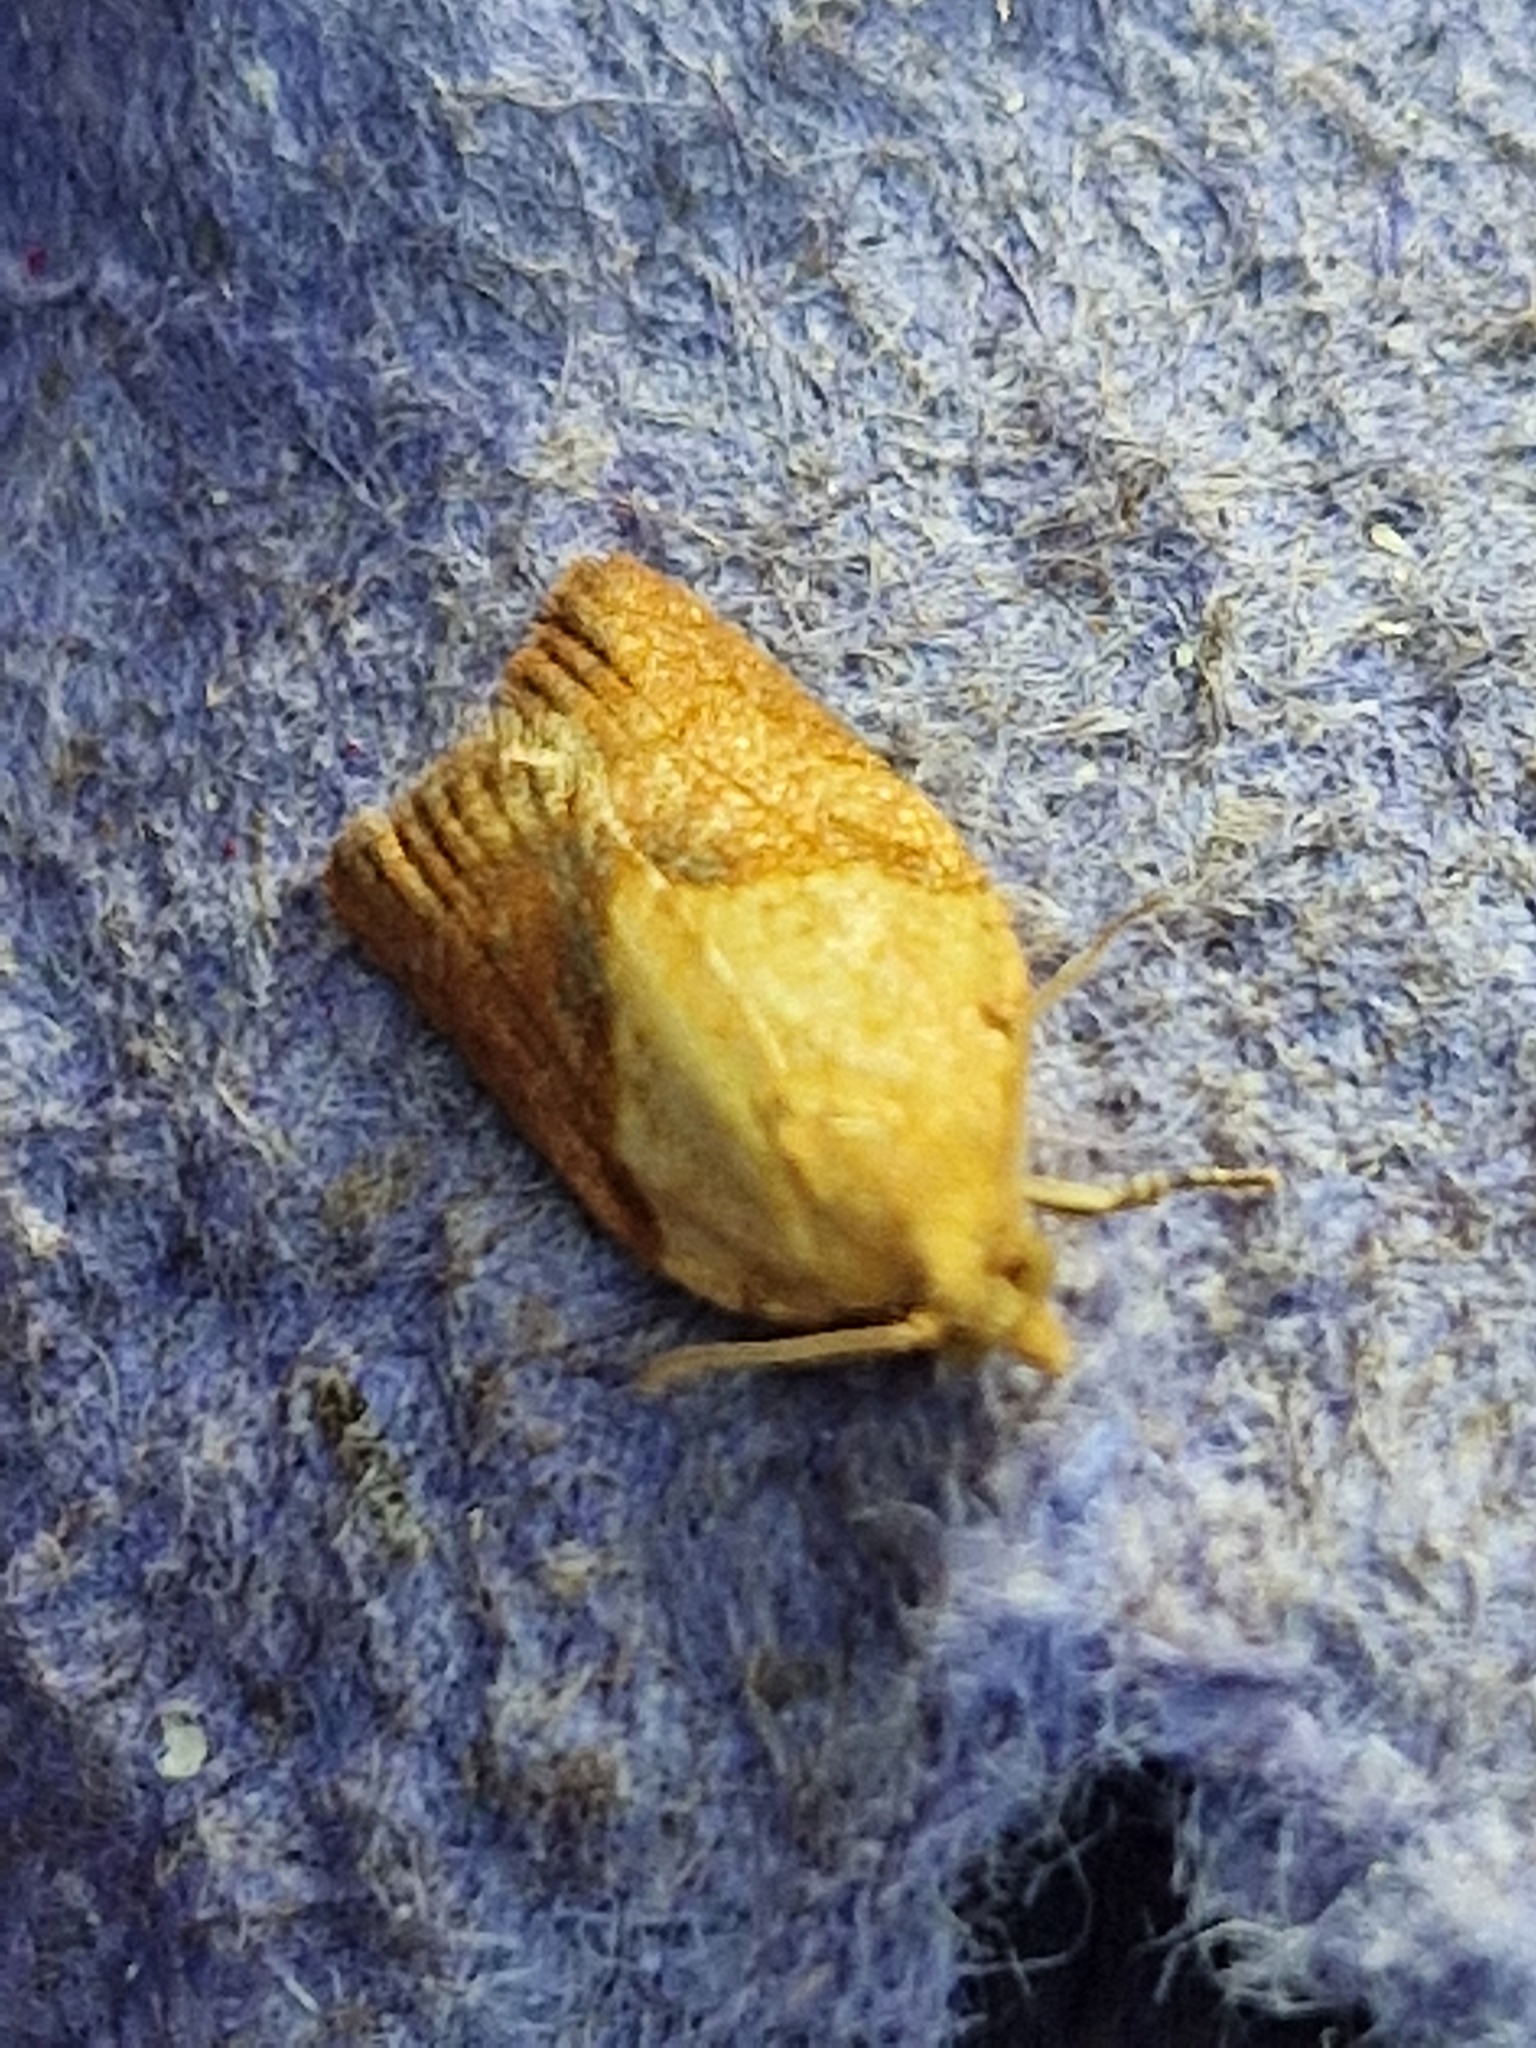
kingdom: Animalia
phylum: Arthropoda
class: Insecta
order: Lepidoptera
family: Tortricidae
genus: Epiphyas
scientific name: Epiphyas postvittana
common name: Light brown apple moth
